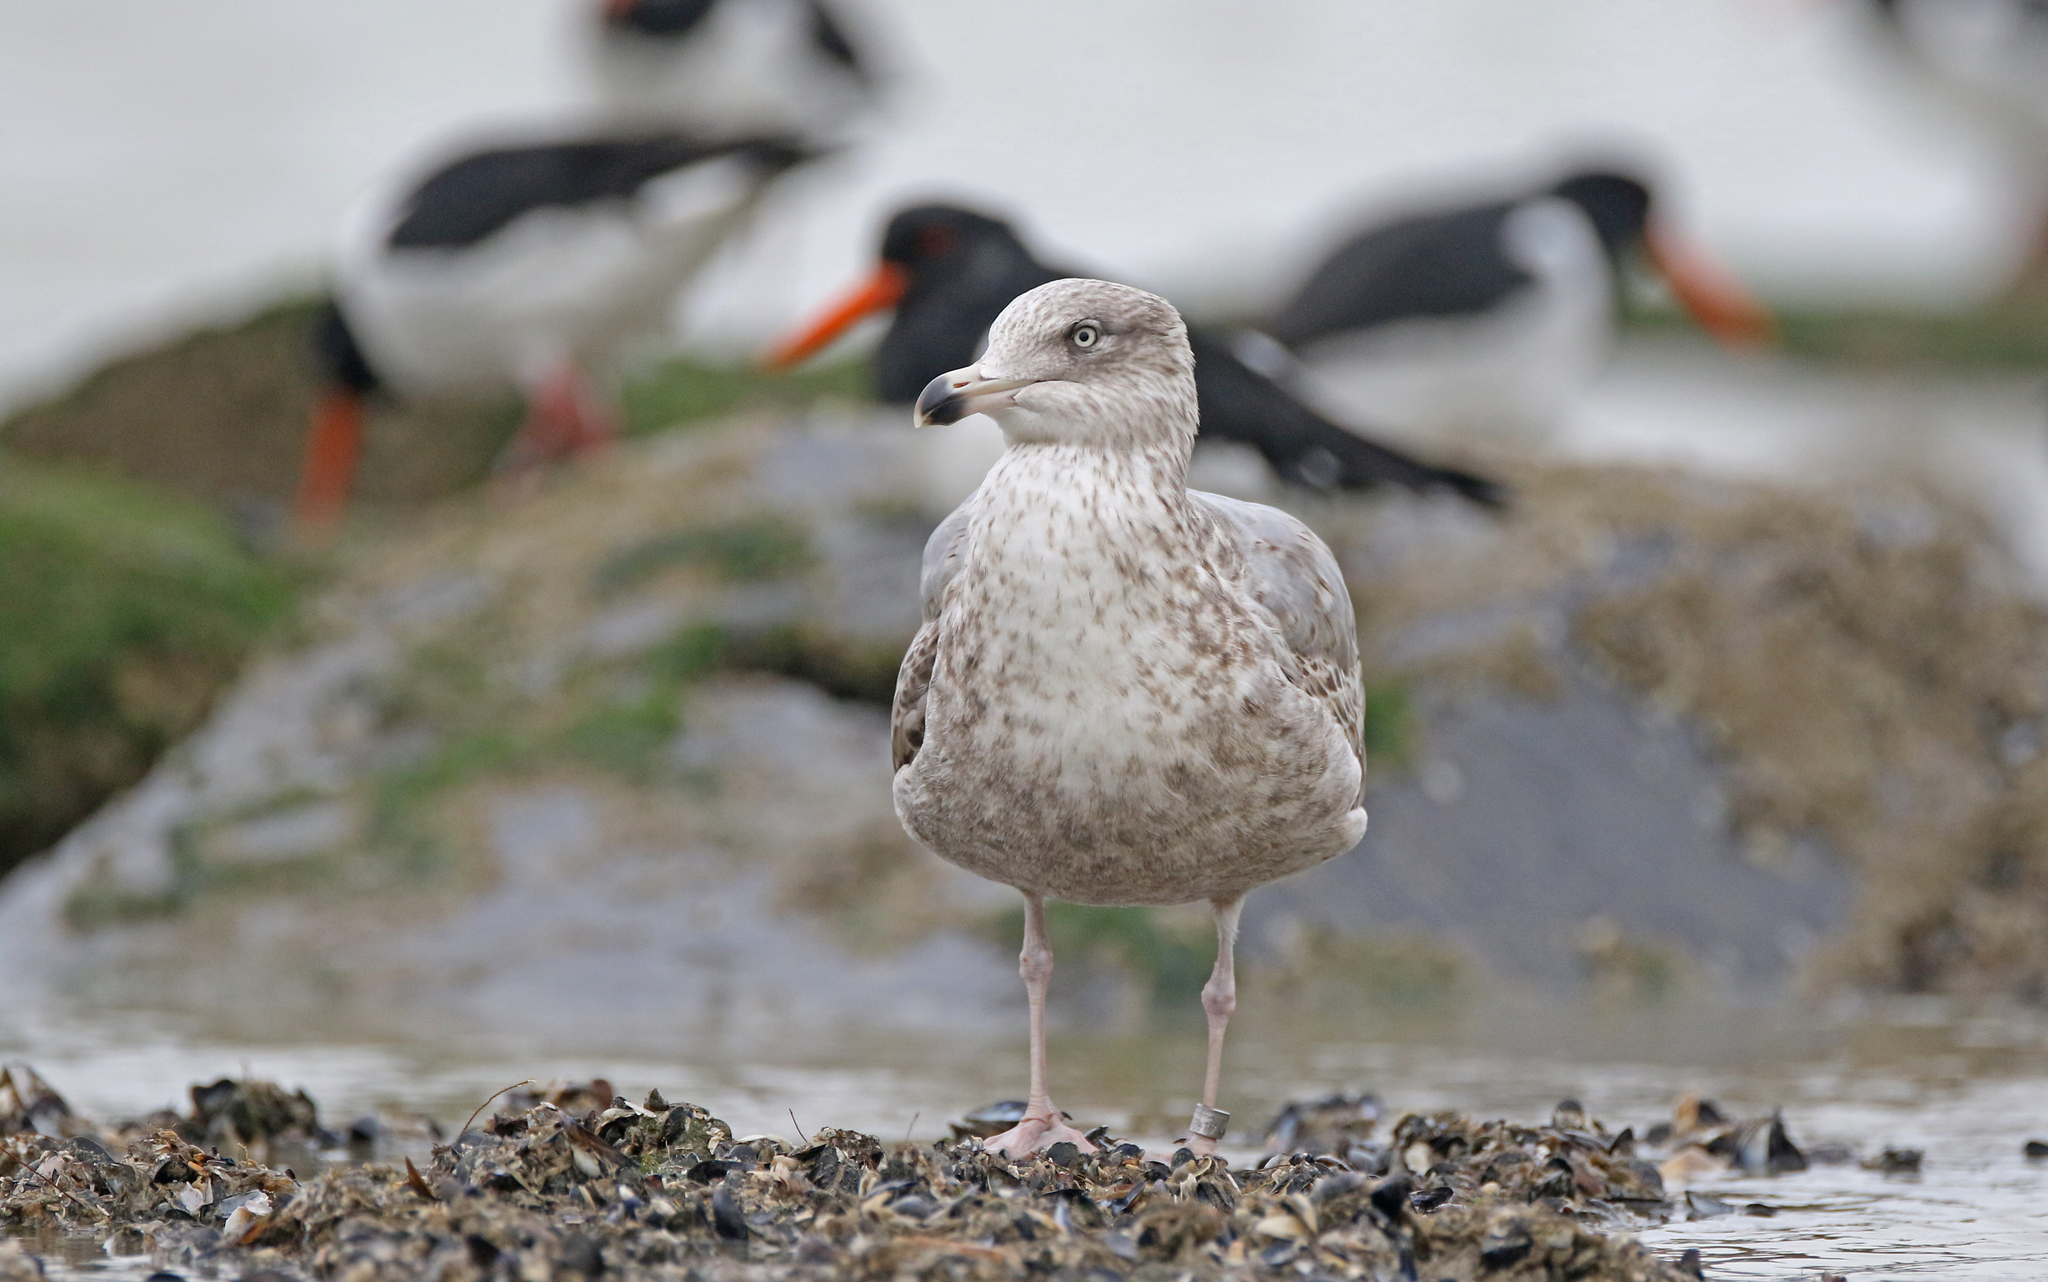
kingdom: Animalia
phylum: Chordata
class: Aves
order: Charadriiformes
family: Laridae
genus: Larus
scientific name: Larus argentatus
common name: Herring gull
